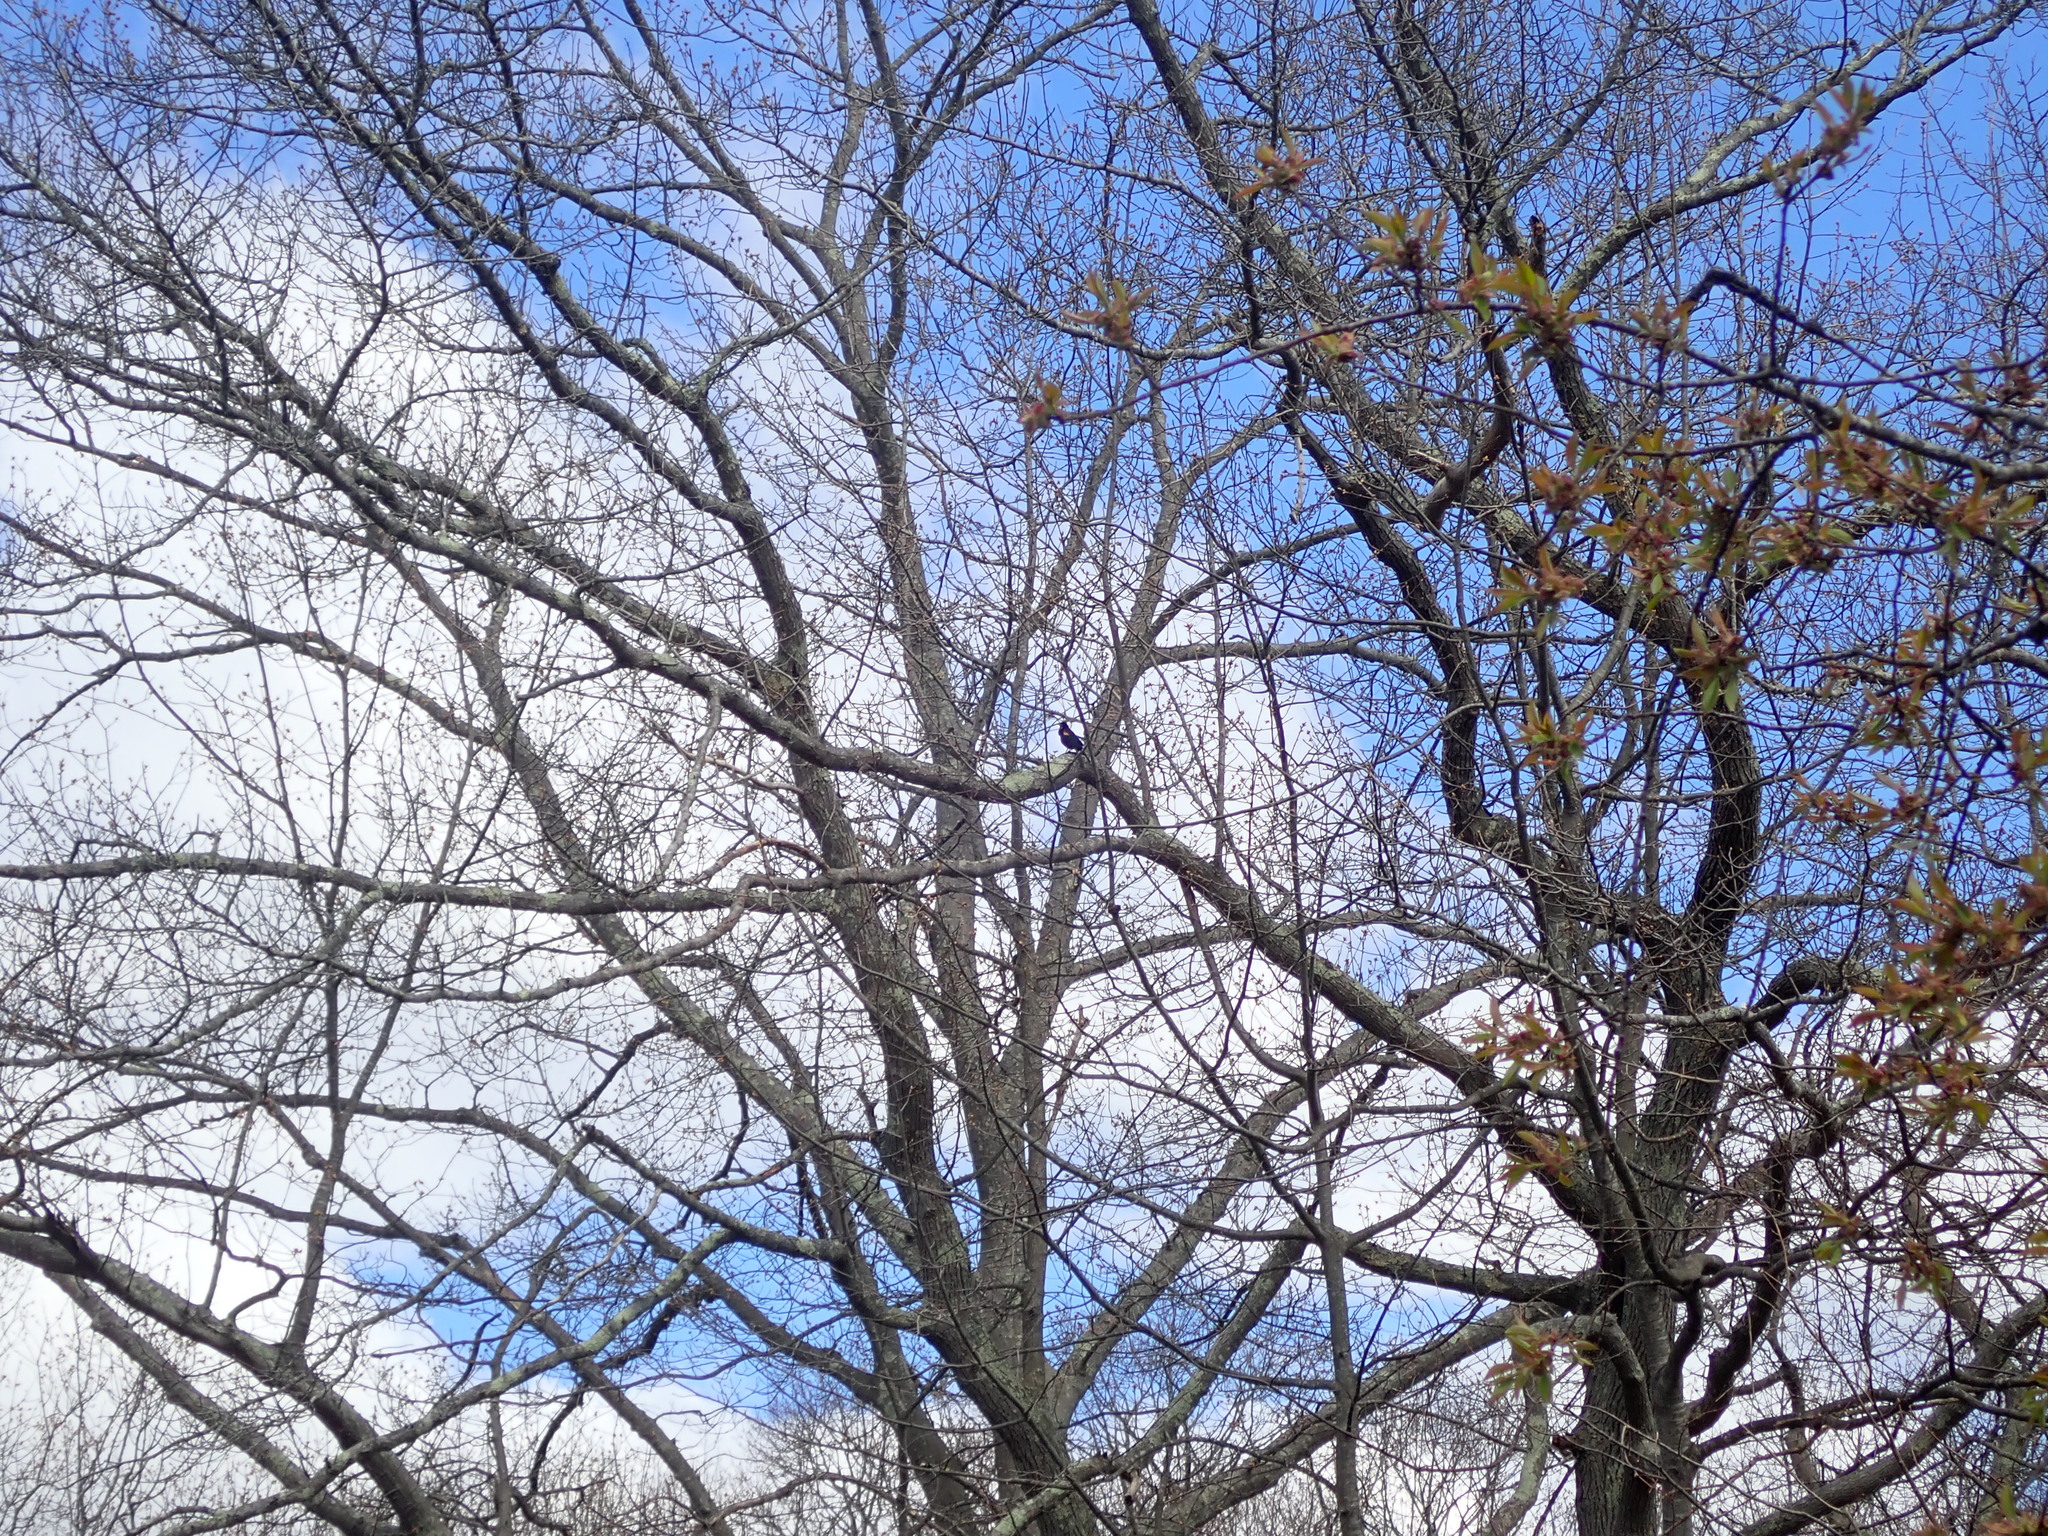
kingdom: Animalia
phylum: Chordata
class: Aves
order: Passeriformes
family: Icteridae
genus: Agelaius
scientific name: Agelaius phoeniceus
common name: Red-winged blackbird
